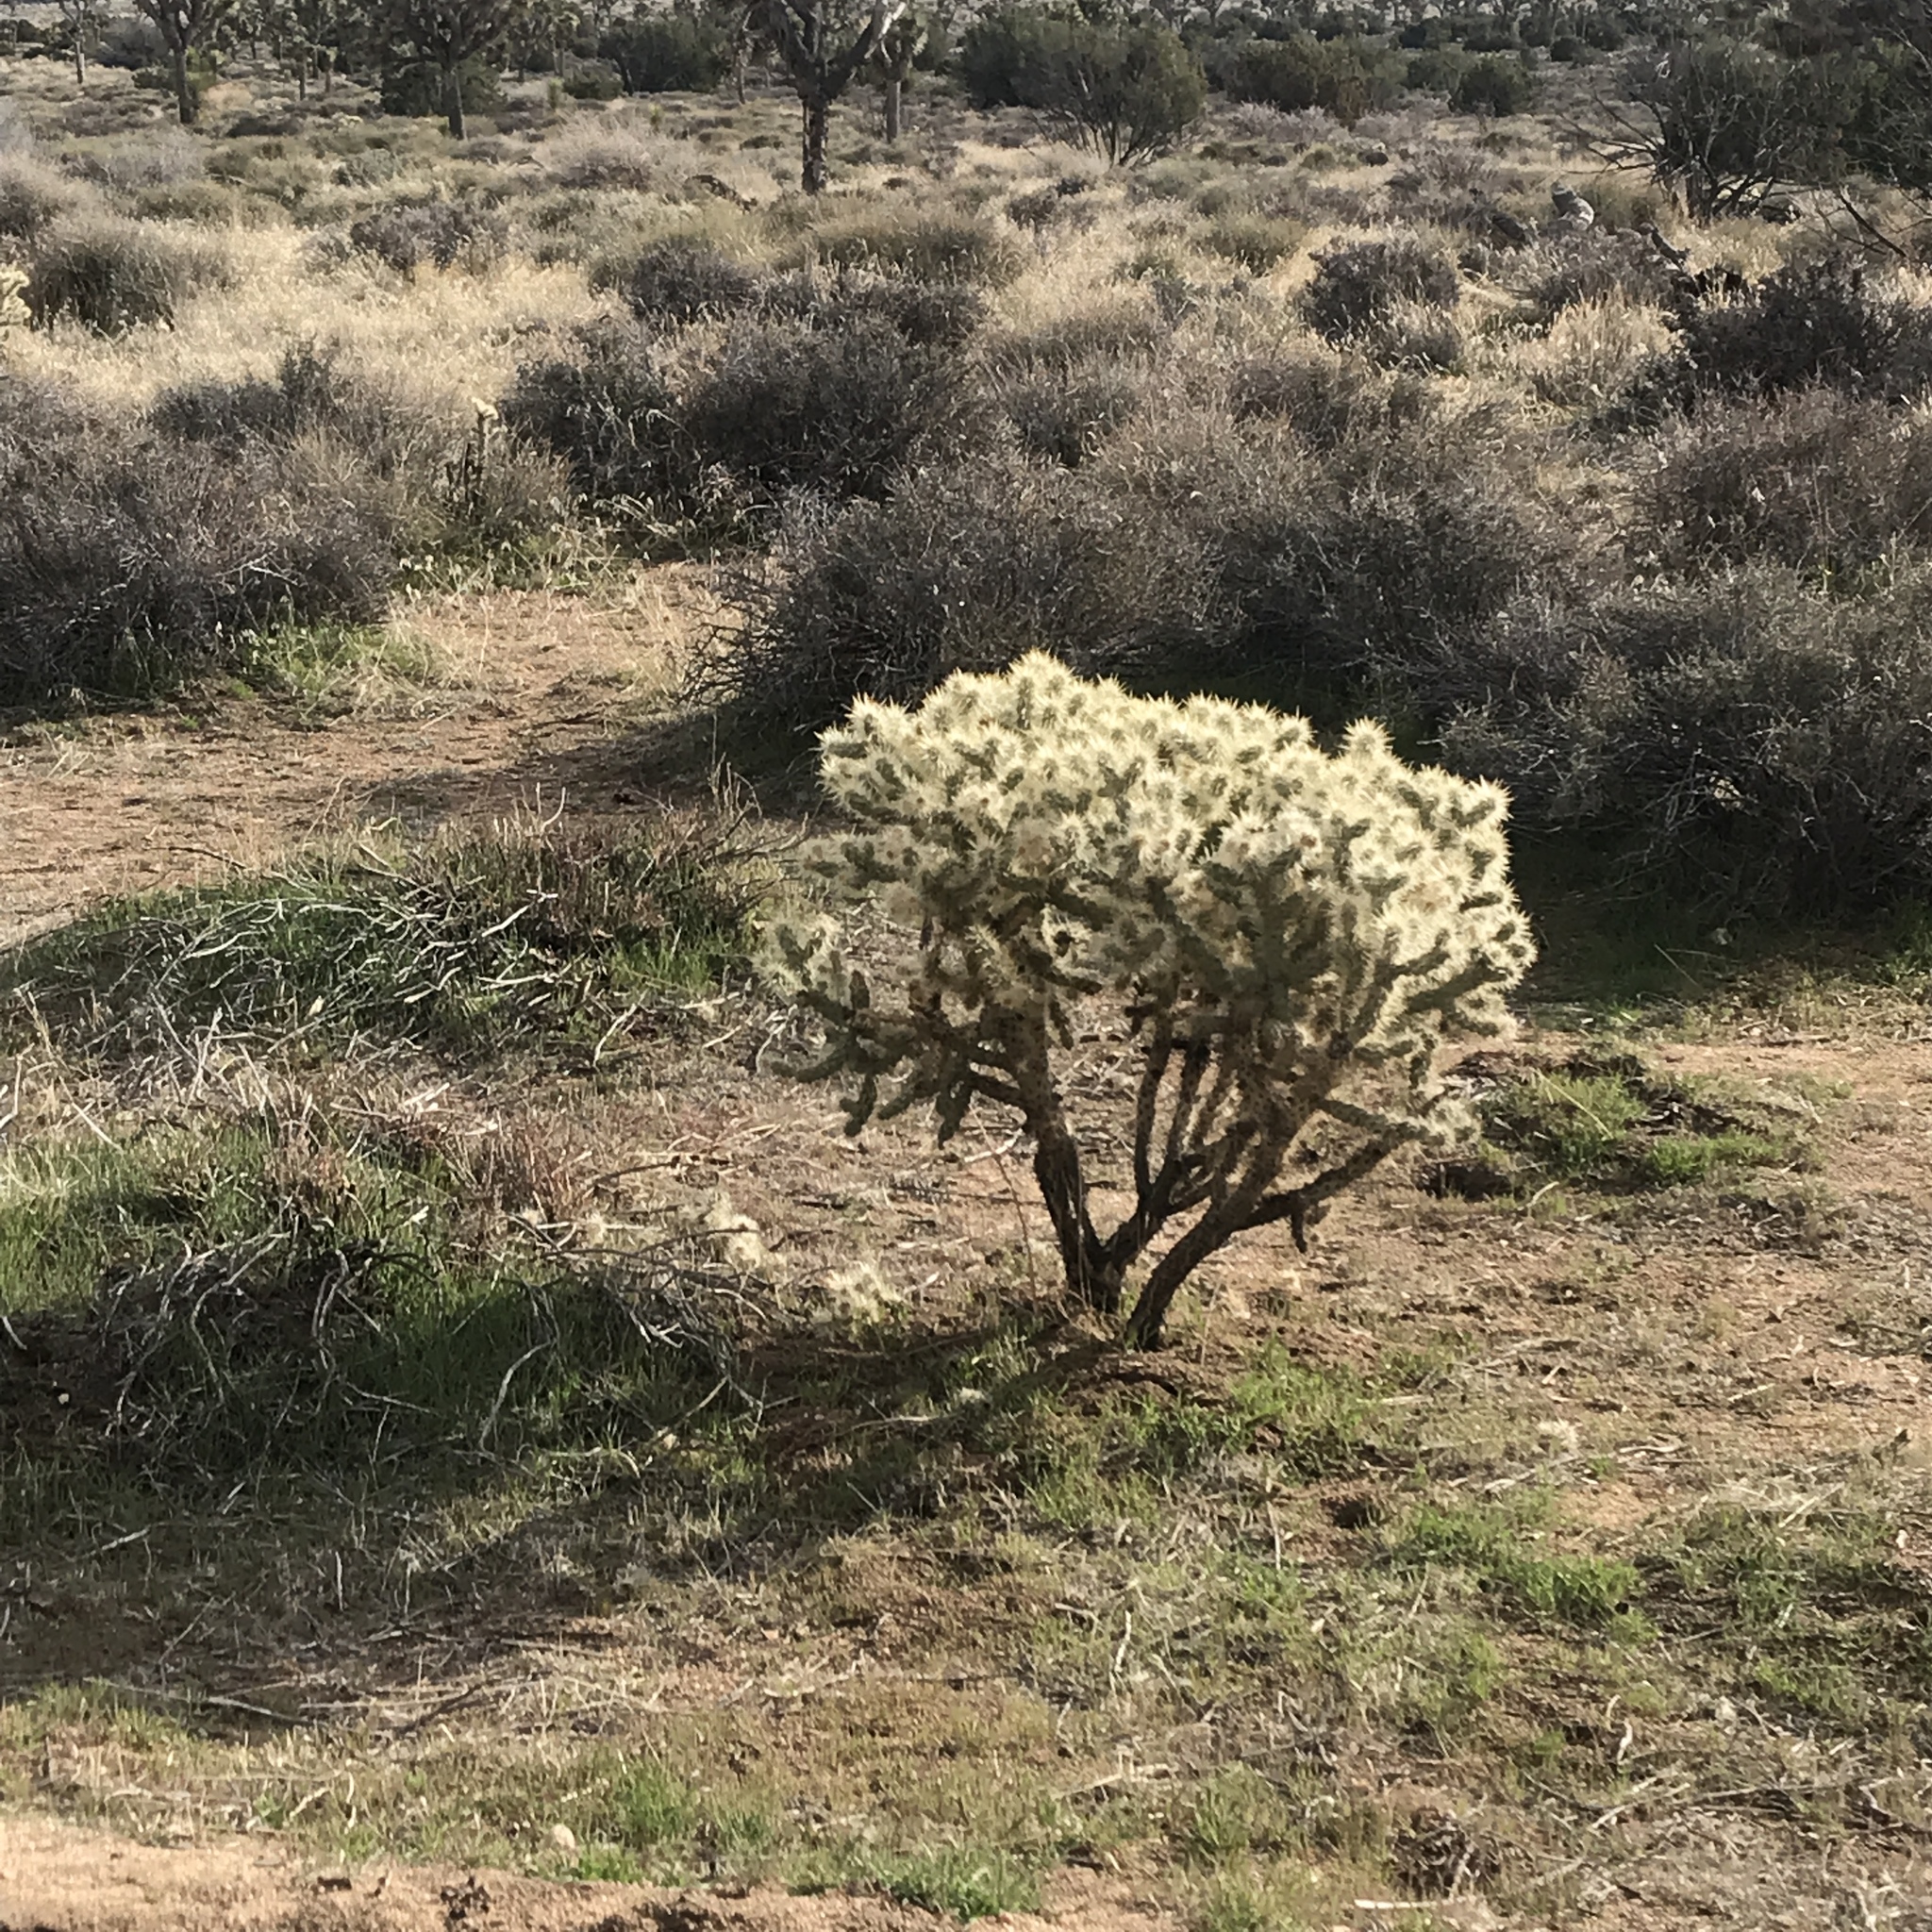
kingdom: Plantae
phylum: Tracheophyta
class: Magnoliopsida
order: Caryophyllales
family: Cactaceae
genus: Cylindropuntia
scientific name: Cylindropuntia echinocarpa
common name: Ground cholla
